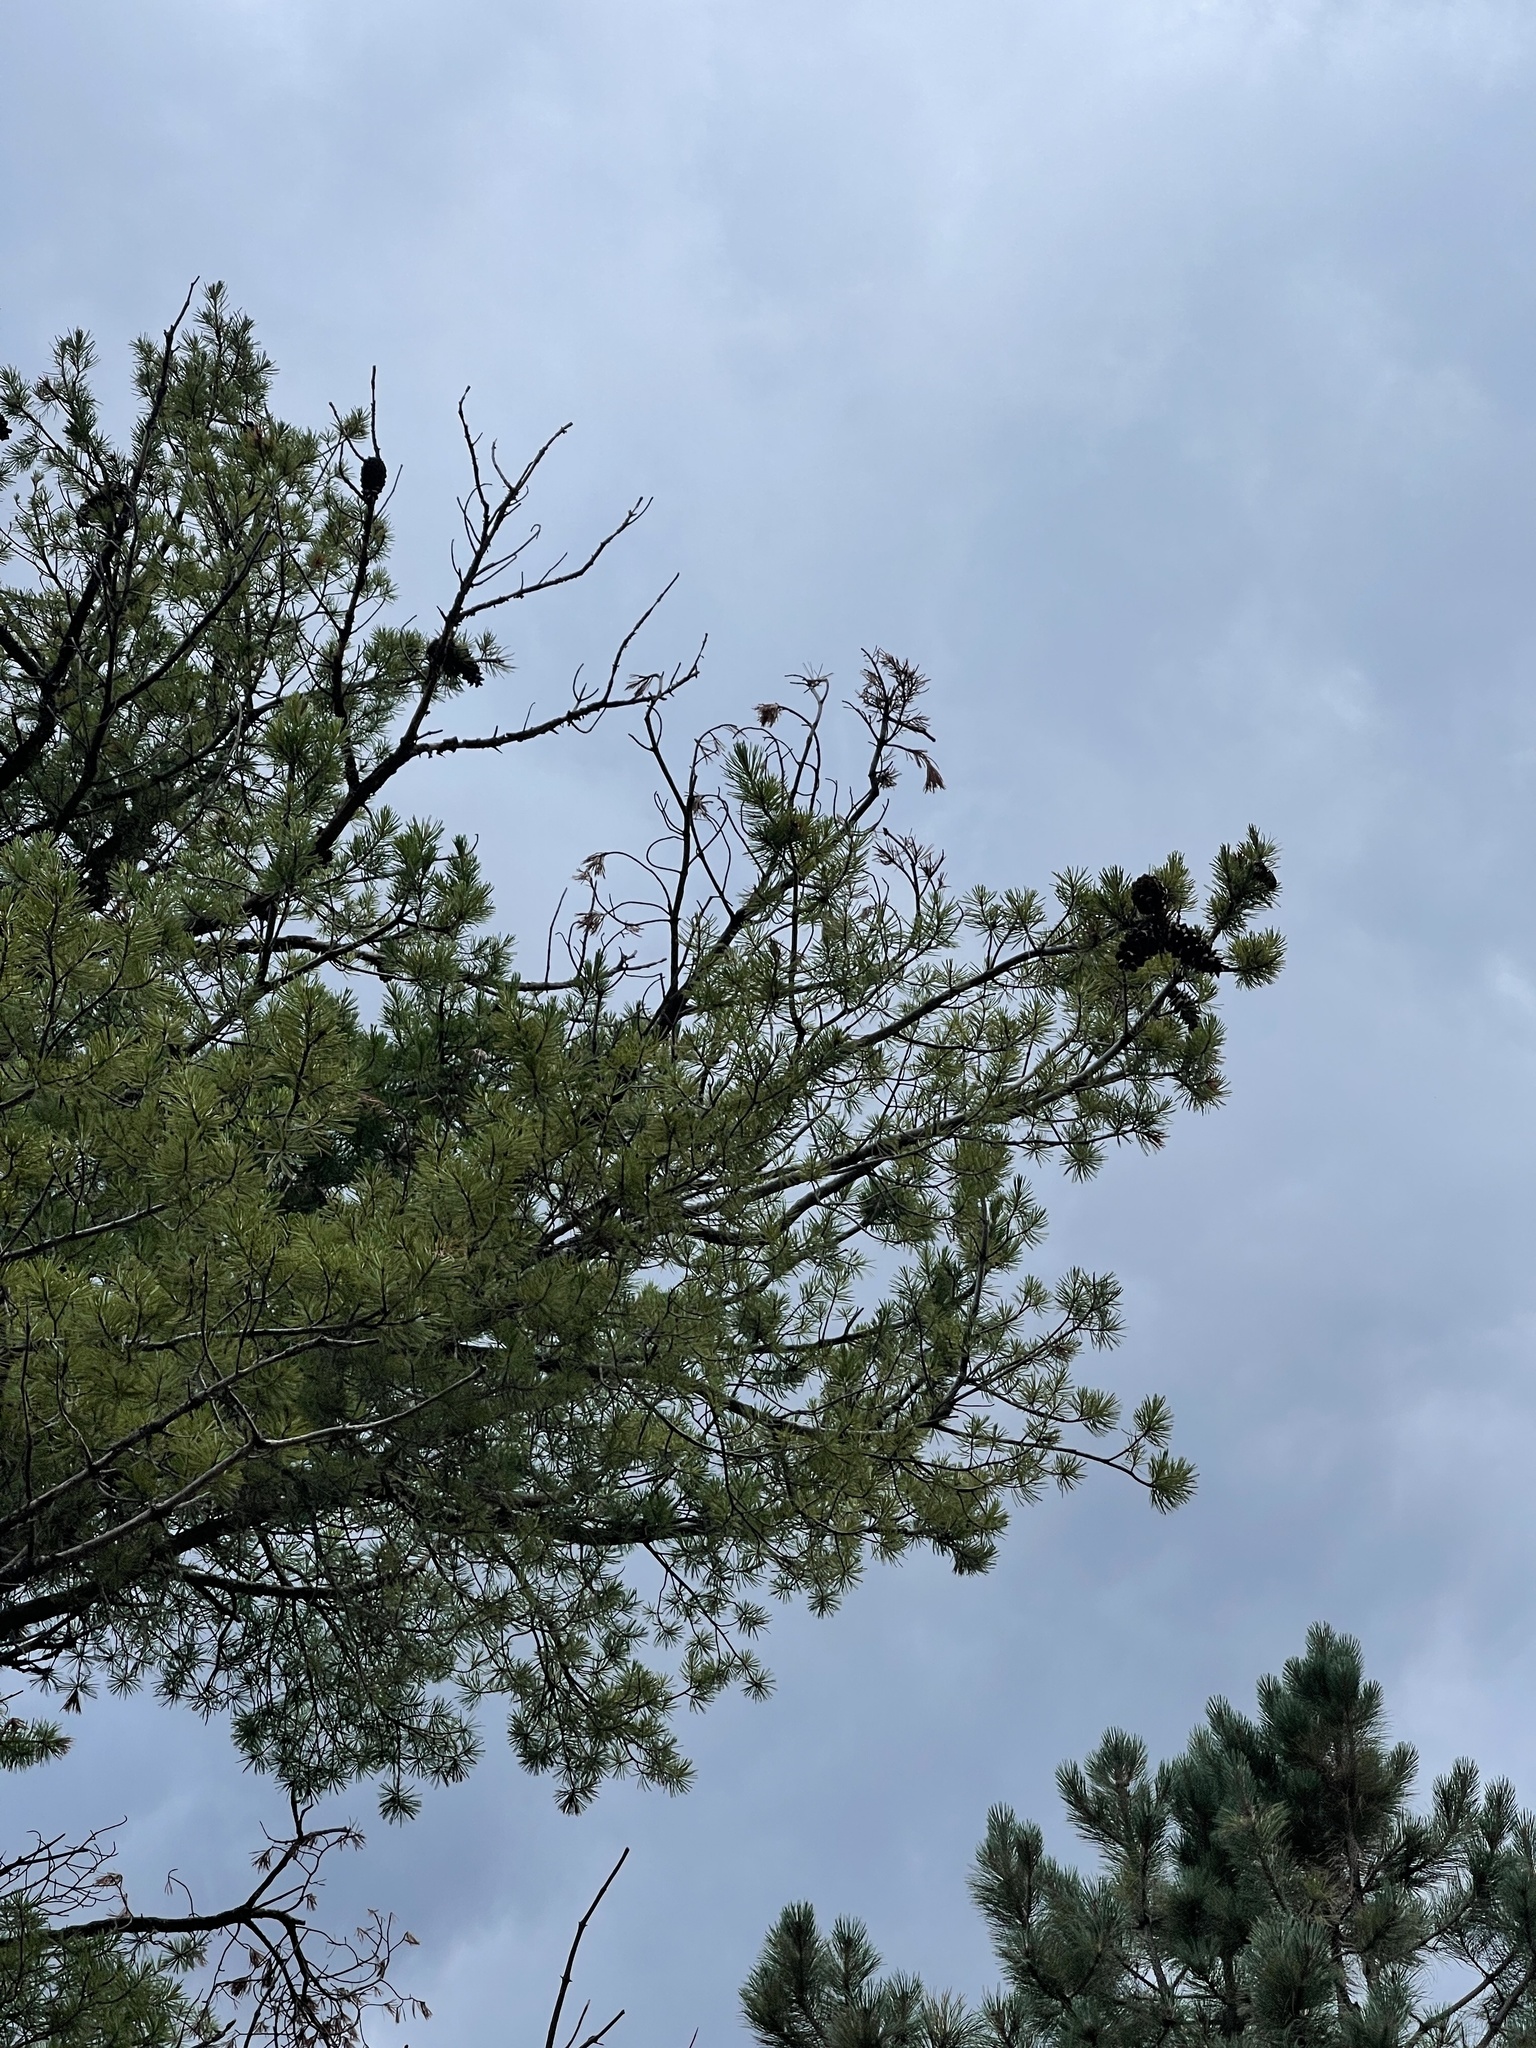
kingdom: Plantae
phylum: Tracheophyta
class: Pinopsida
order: Pinales
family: Pinaceae
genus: Pinus
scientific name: Pinus strobiformis
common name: Southwestern white pine
